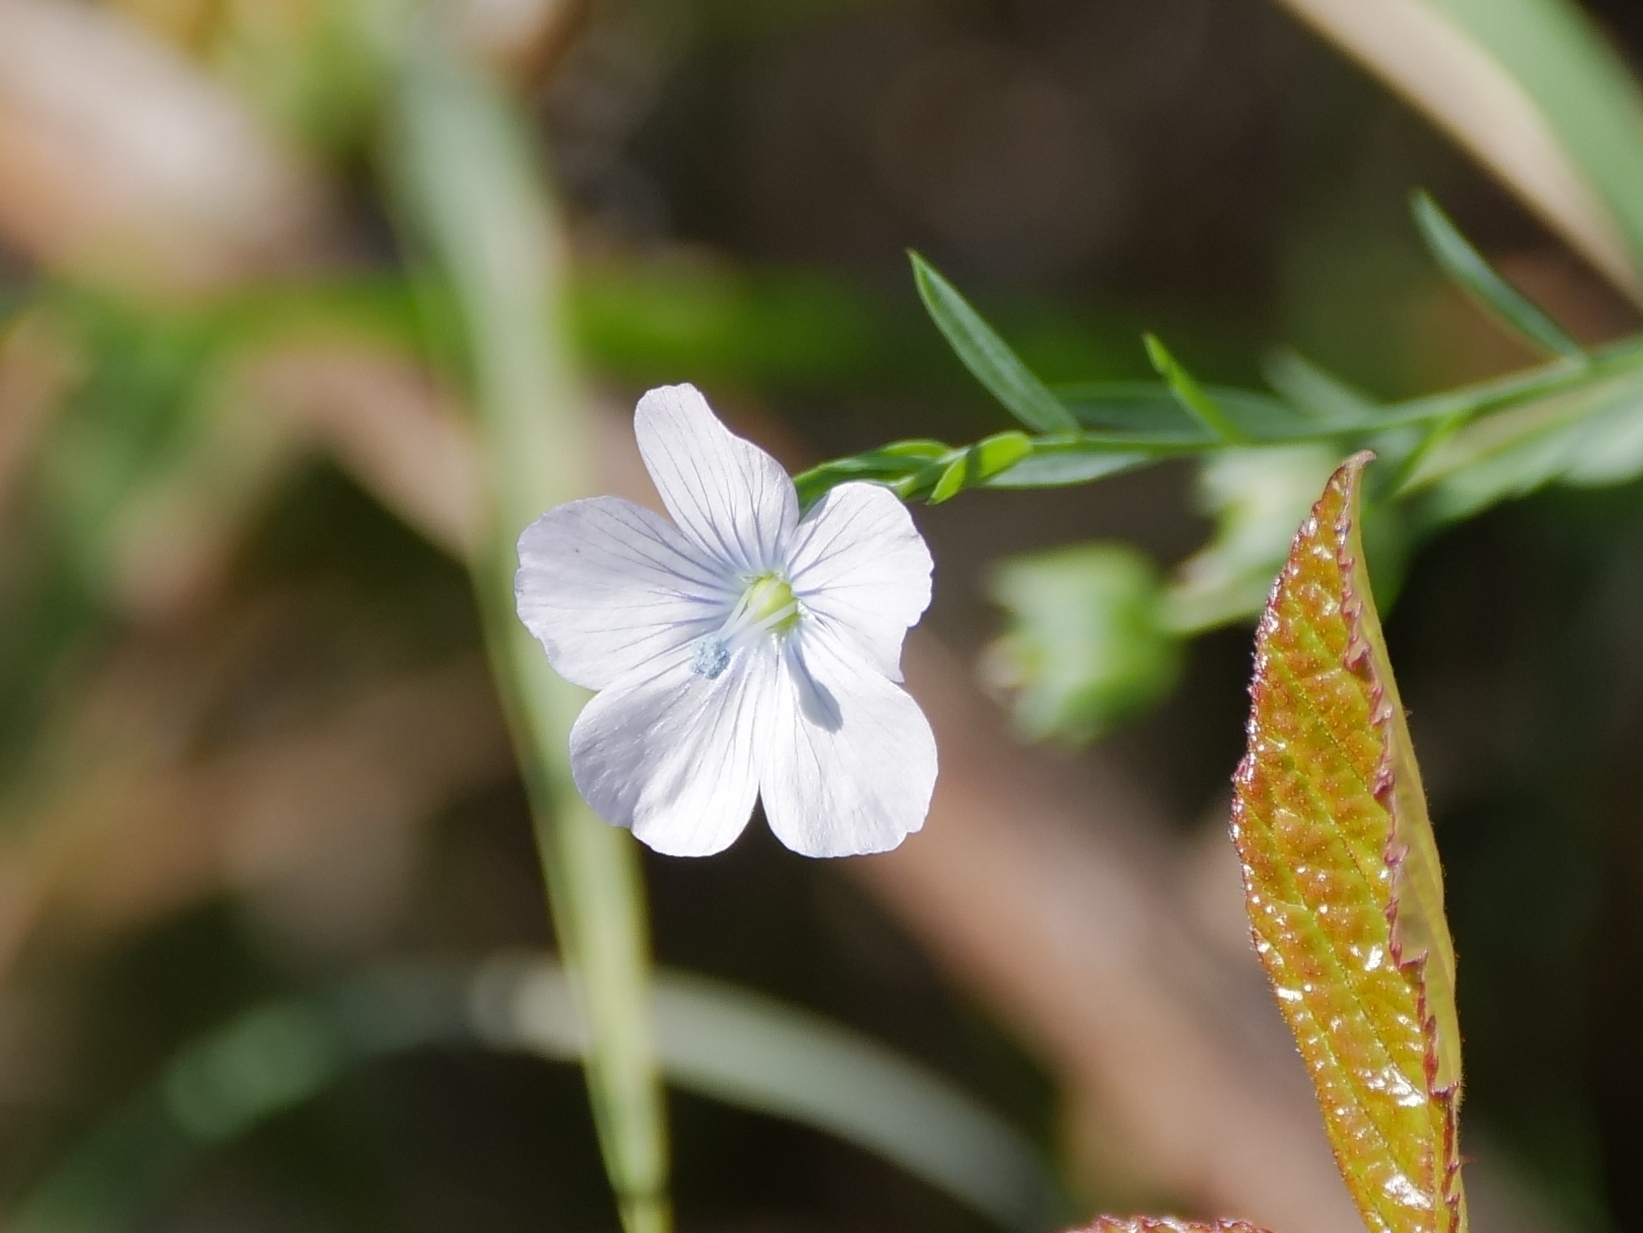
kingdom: Plantae
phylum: Tracheophyta
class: Magnoliopsida
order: Malpighiales
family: Linaceae
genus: Linum
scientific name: Linum bienne
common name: Pale flax
